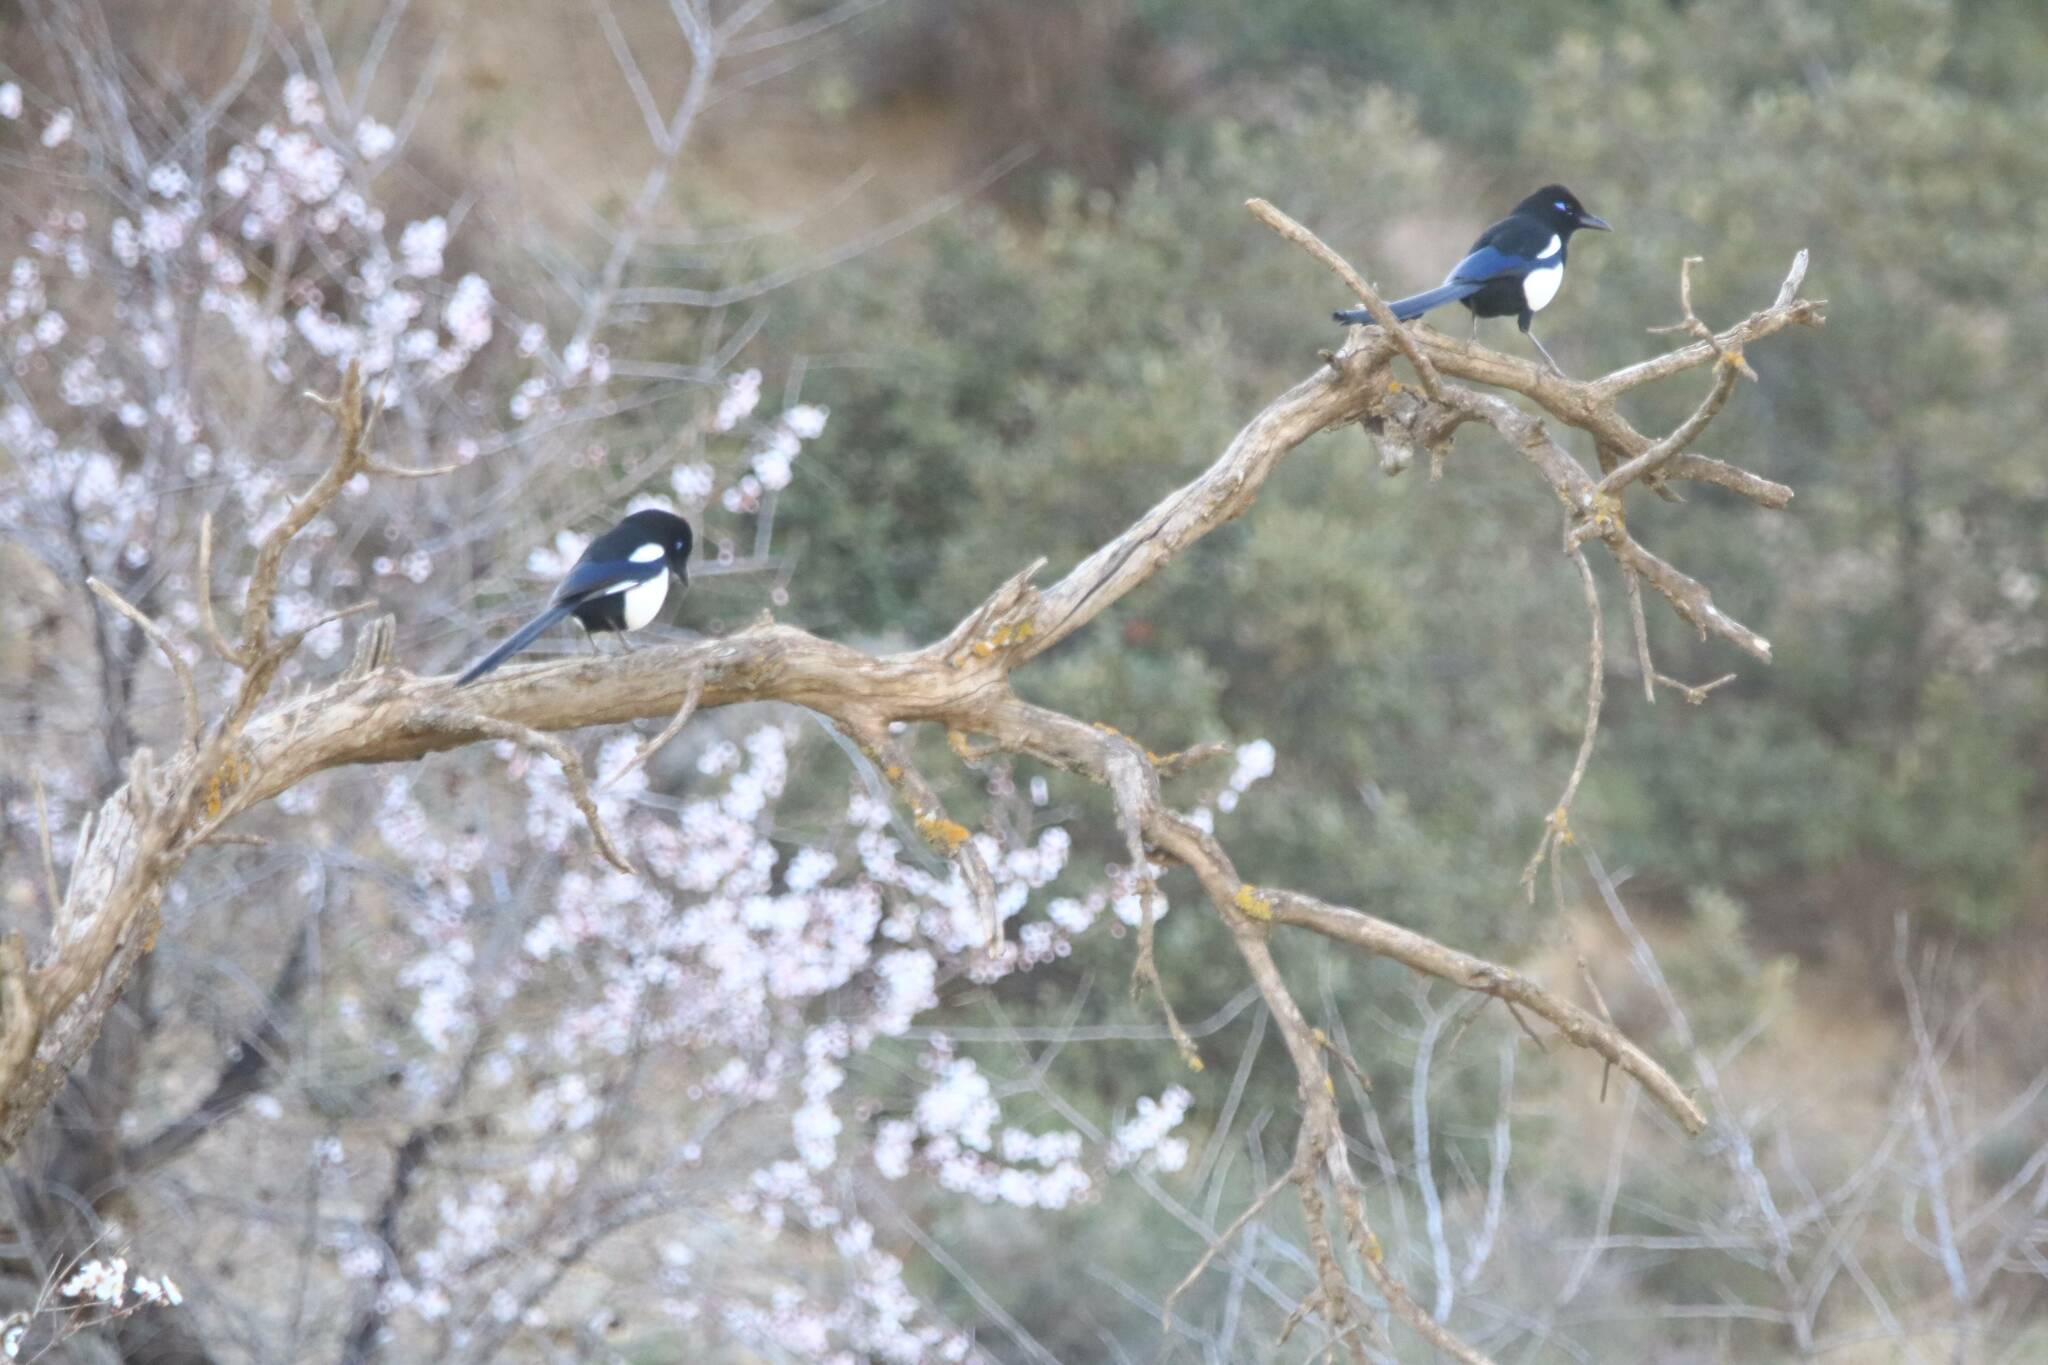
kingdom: Animalia
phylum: Chordata
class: Aves
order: Passeriformes
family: Corvidae
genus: Pica
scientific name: Pica mauritanica
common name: Maghreb magpie
